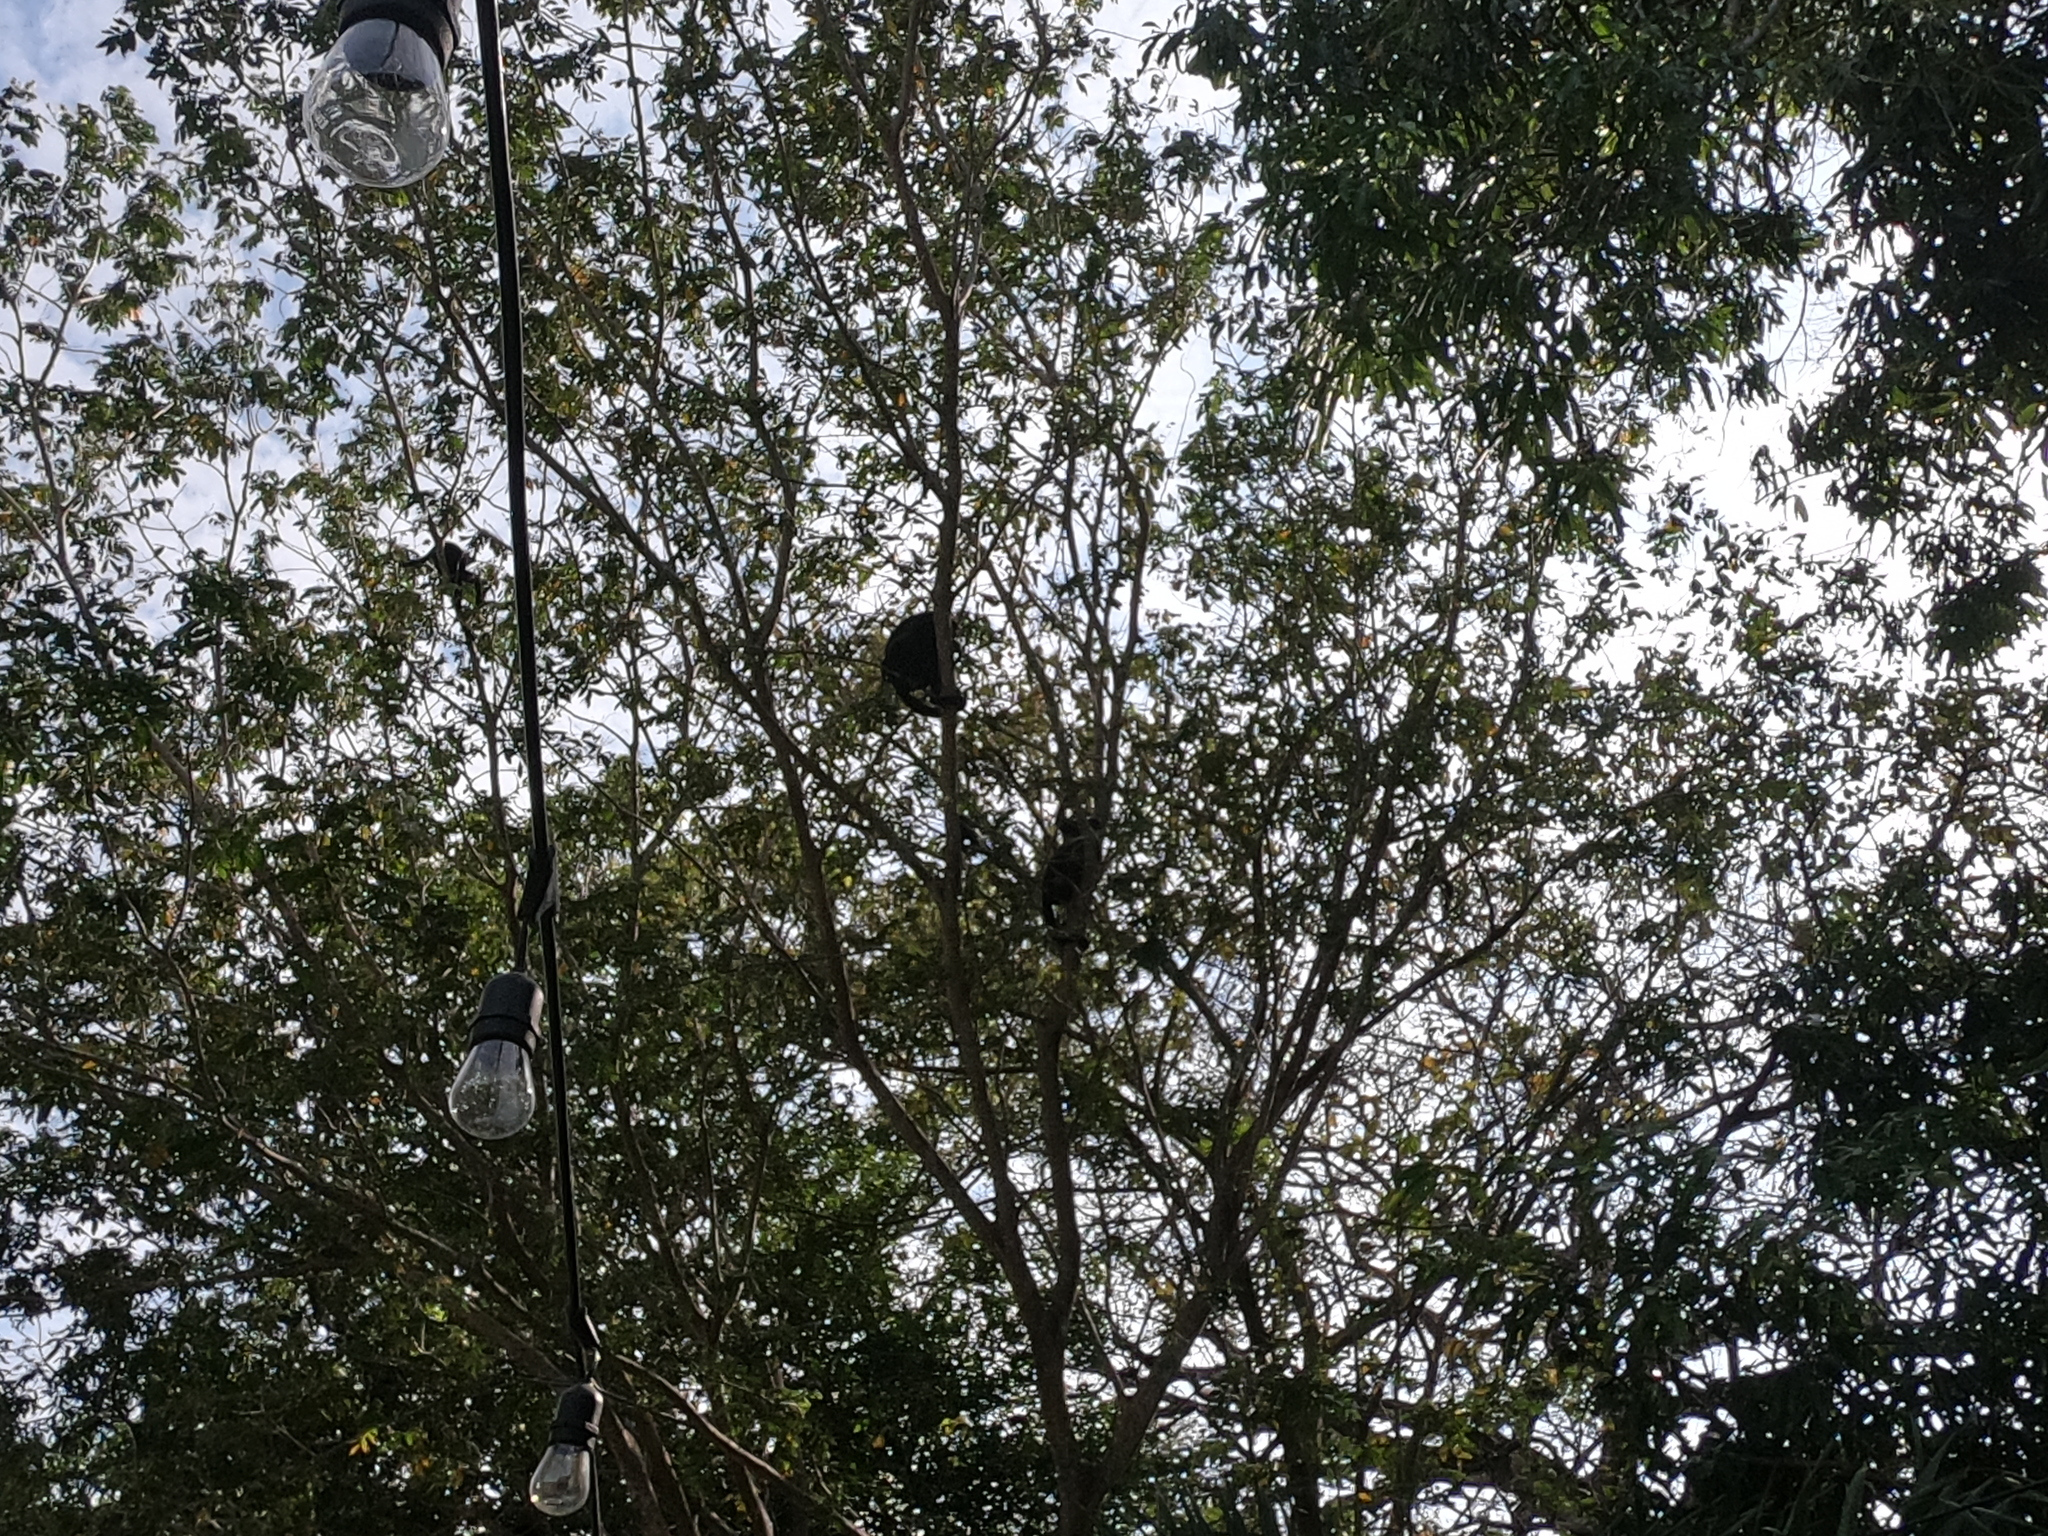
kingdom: Animalia
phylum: Chordata
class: Mammalia
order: Primates
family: Atelidae
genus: Alouatta
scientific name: Alouatta palliata
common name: Mantled howler
